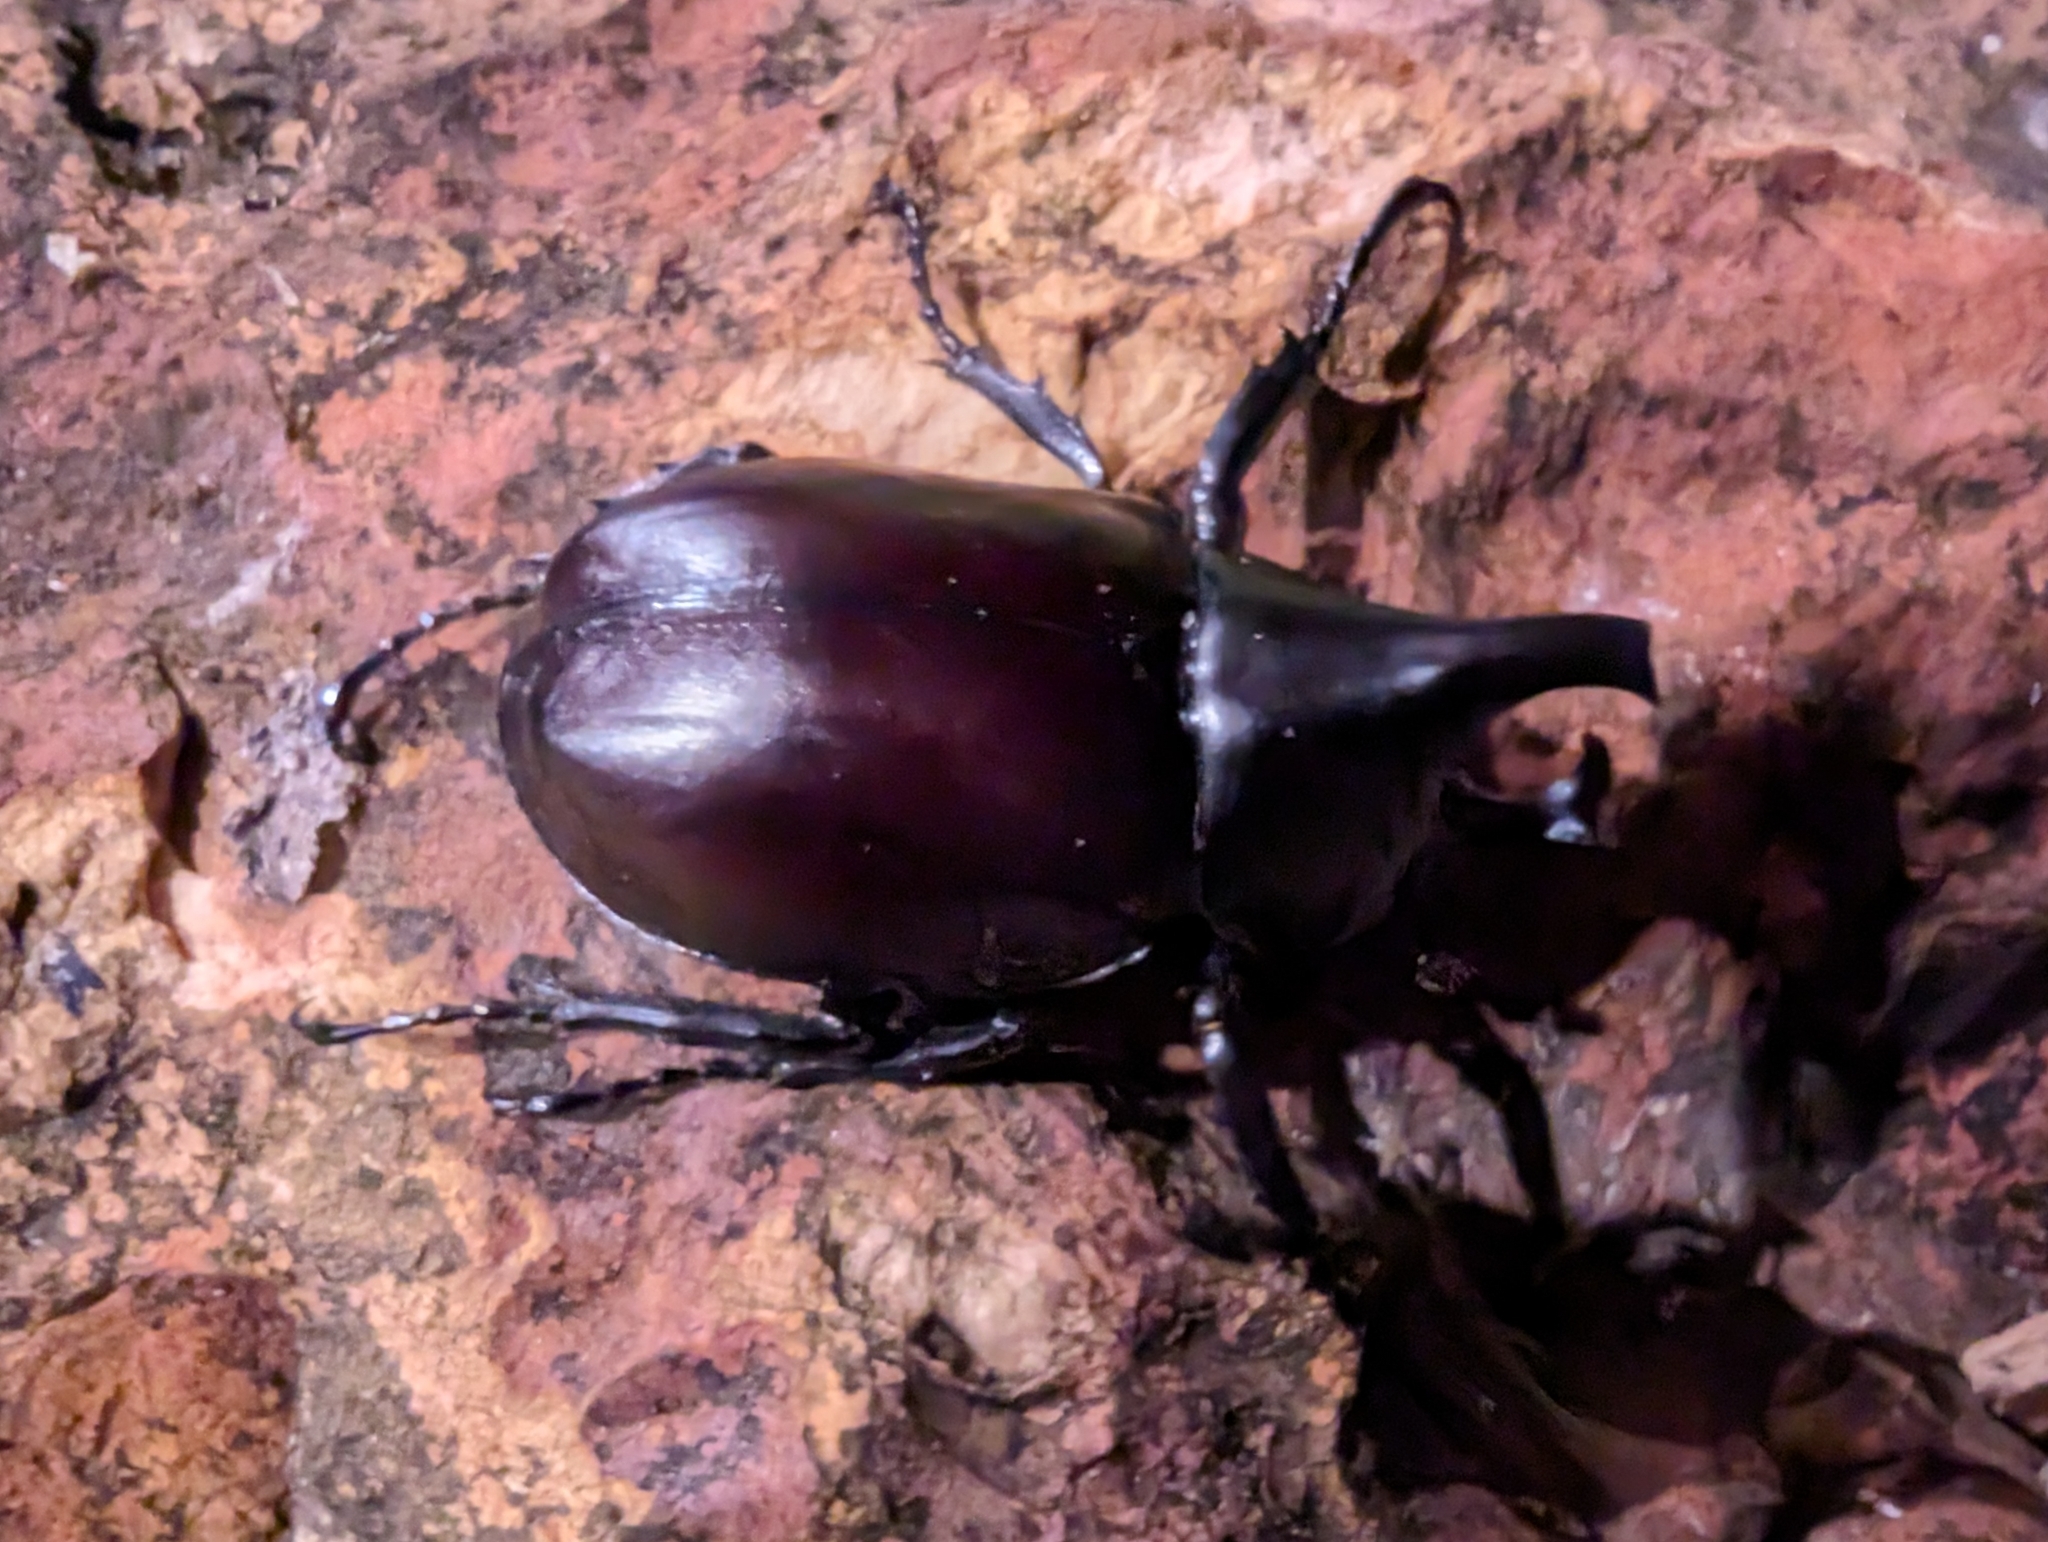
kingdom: Animalia
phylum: Arthropoda
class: Insecta
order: Coleoptera
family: Scarabaeidae
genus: Xylotrupes
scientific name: Xylotrupes australicus
